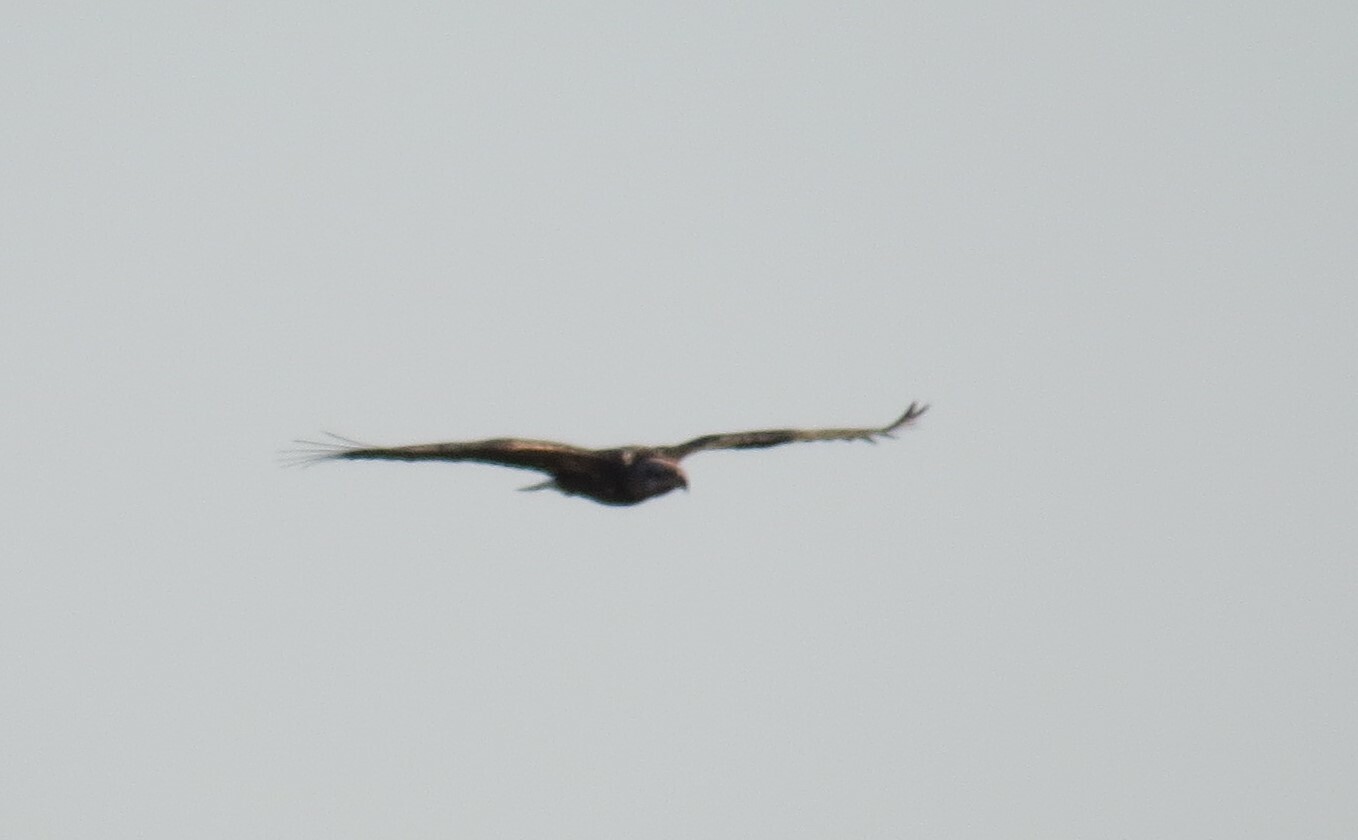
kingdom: Animalia
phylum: Chordata
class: Aves
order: Accipitriformes
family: Accipitridae
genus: Haliaeetus
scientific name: Haliaeetus leucocephalus
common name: Bald eagle
